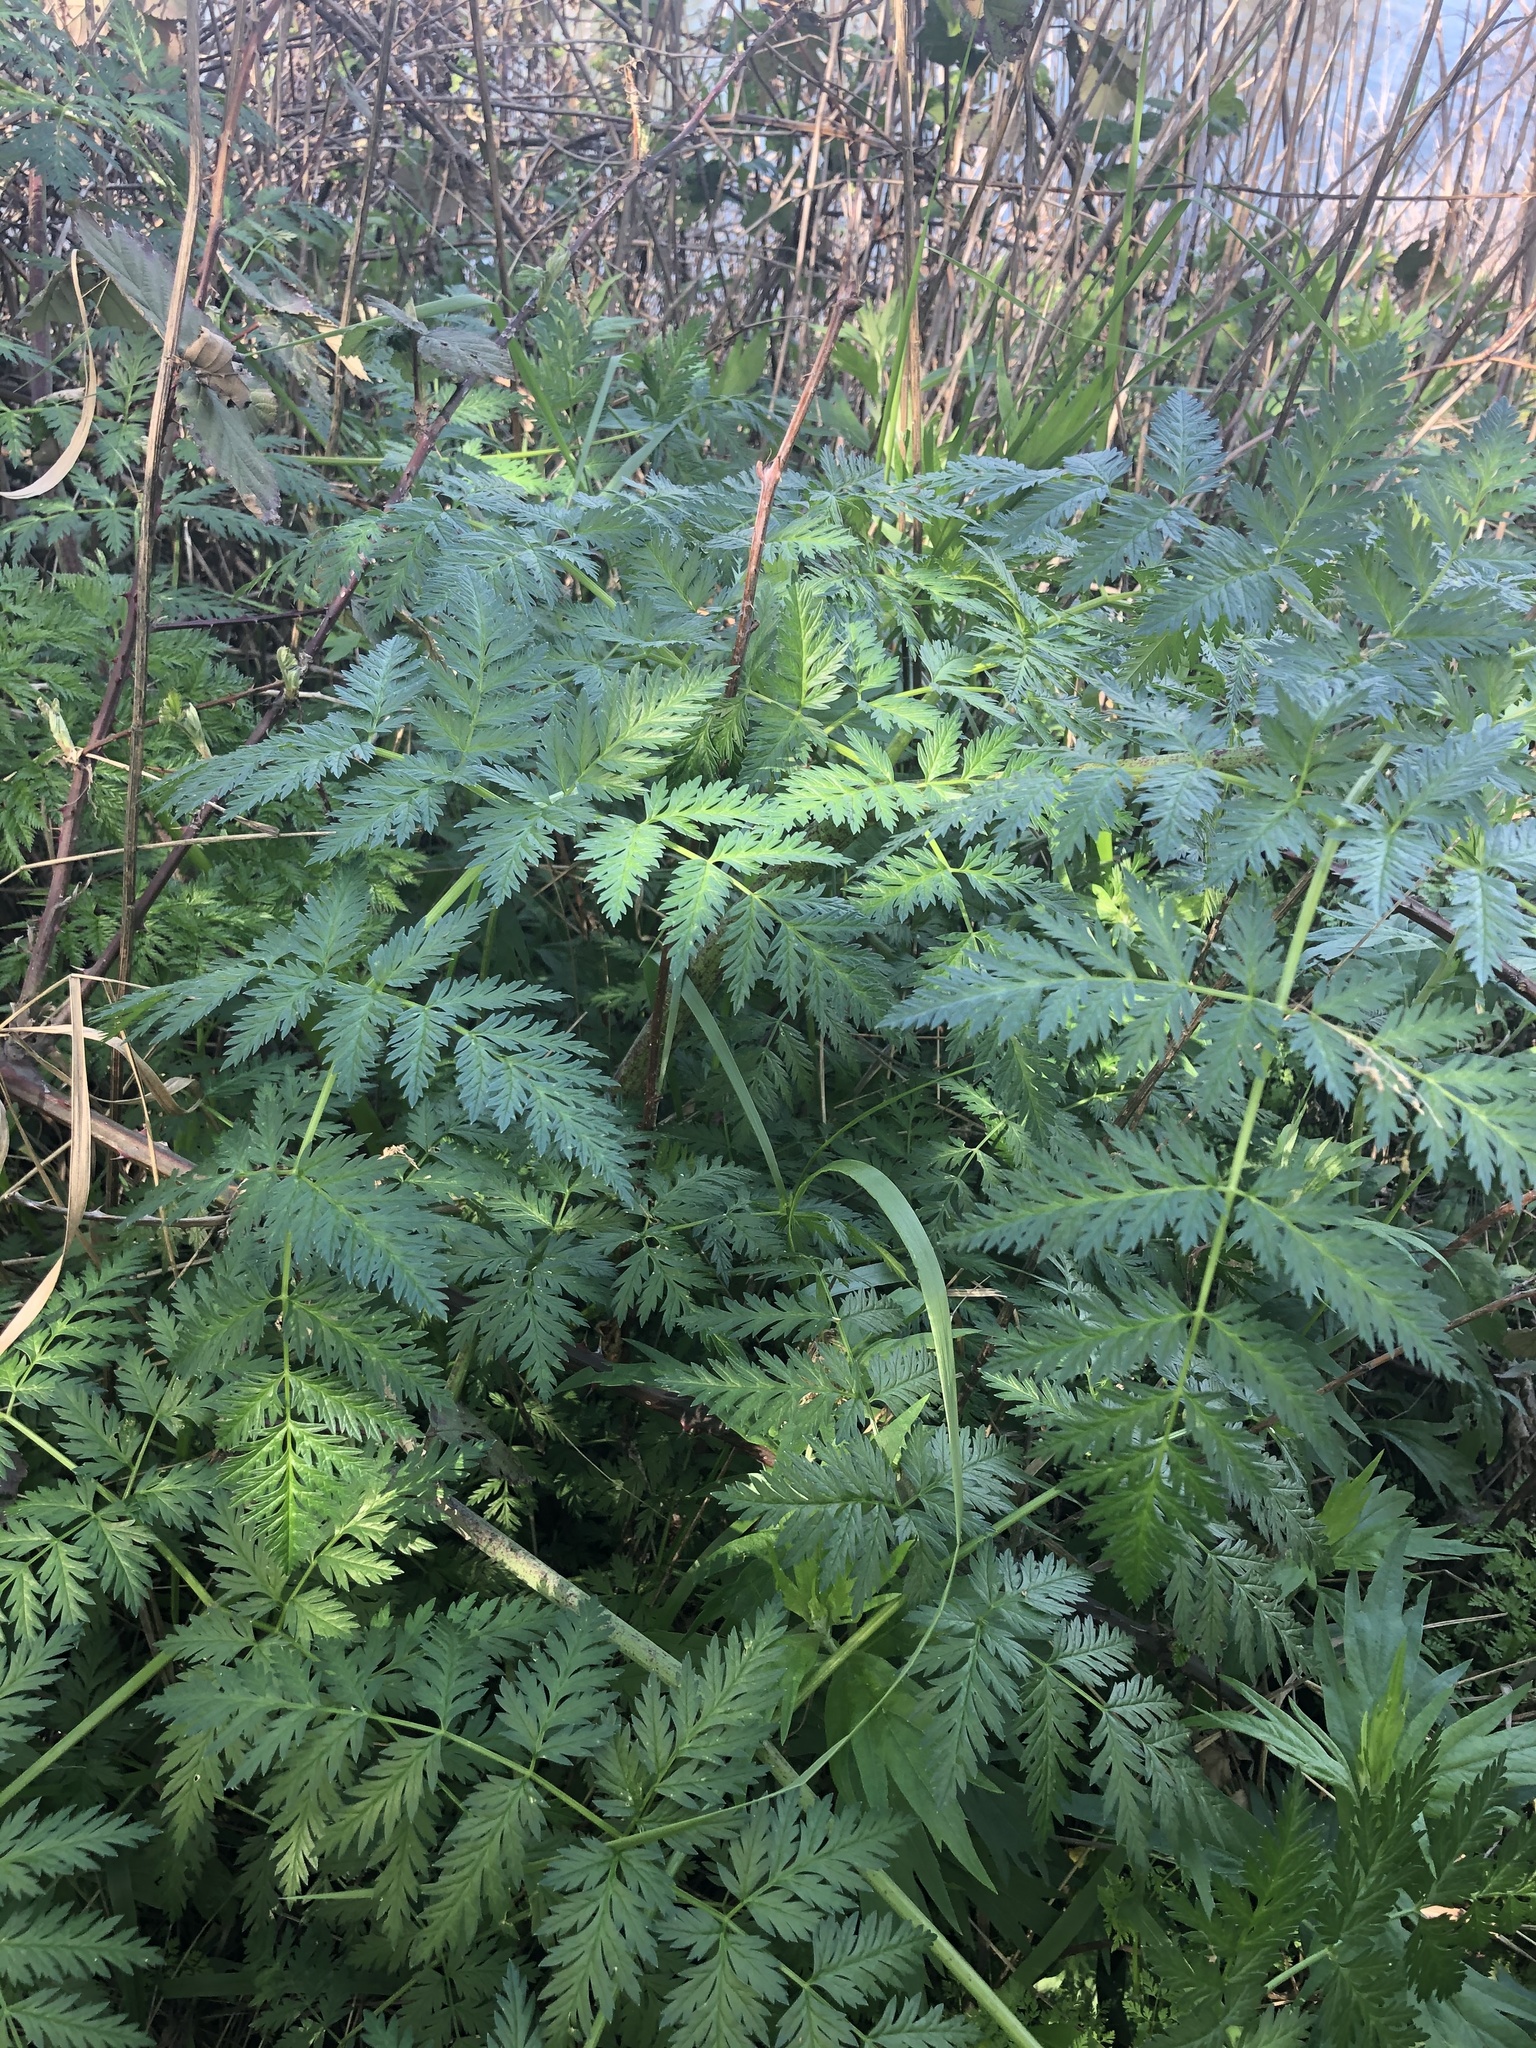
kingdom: Plantae
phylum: Tracheophyta
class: Magnoliopsida
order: Apiales
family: Apiaceae
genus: Conium
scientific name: Conium maculatum
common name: Hemlock
